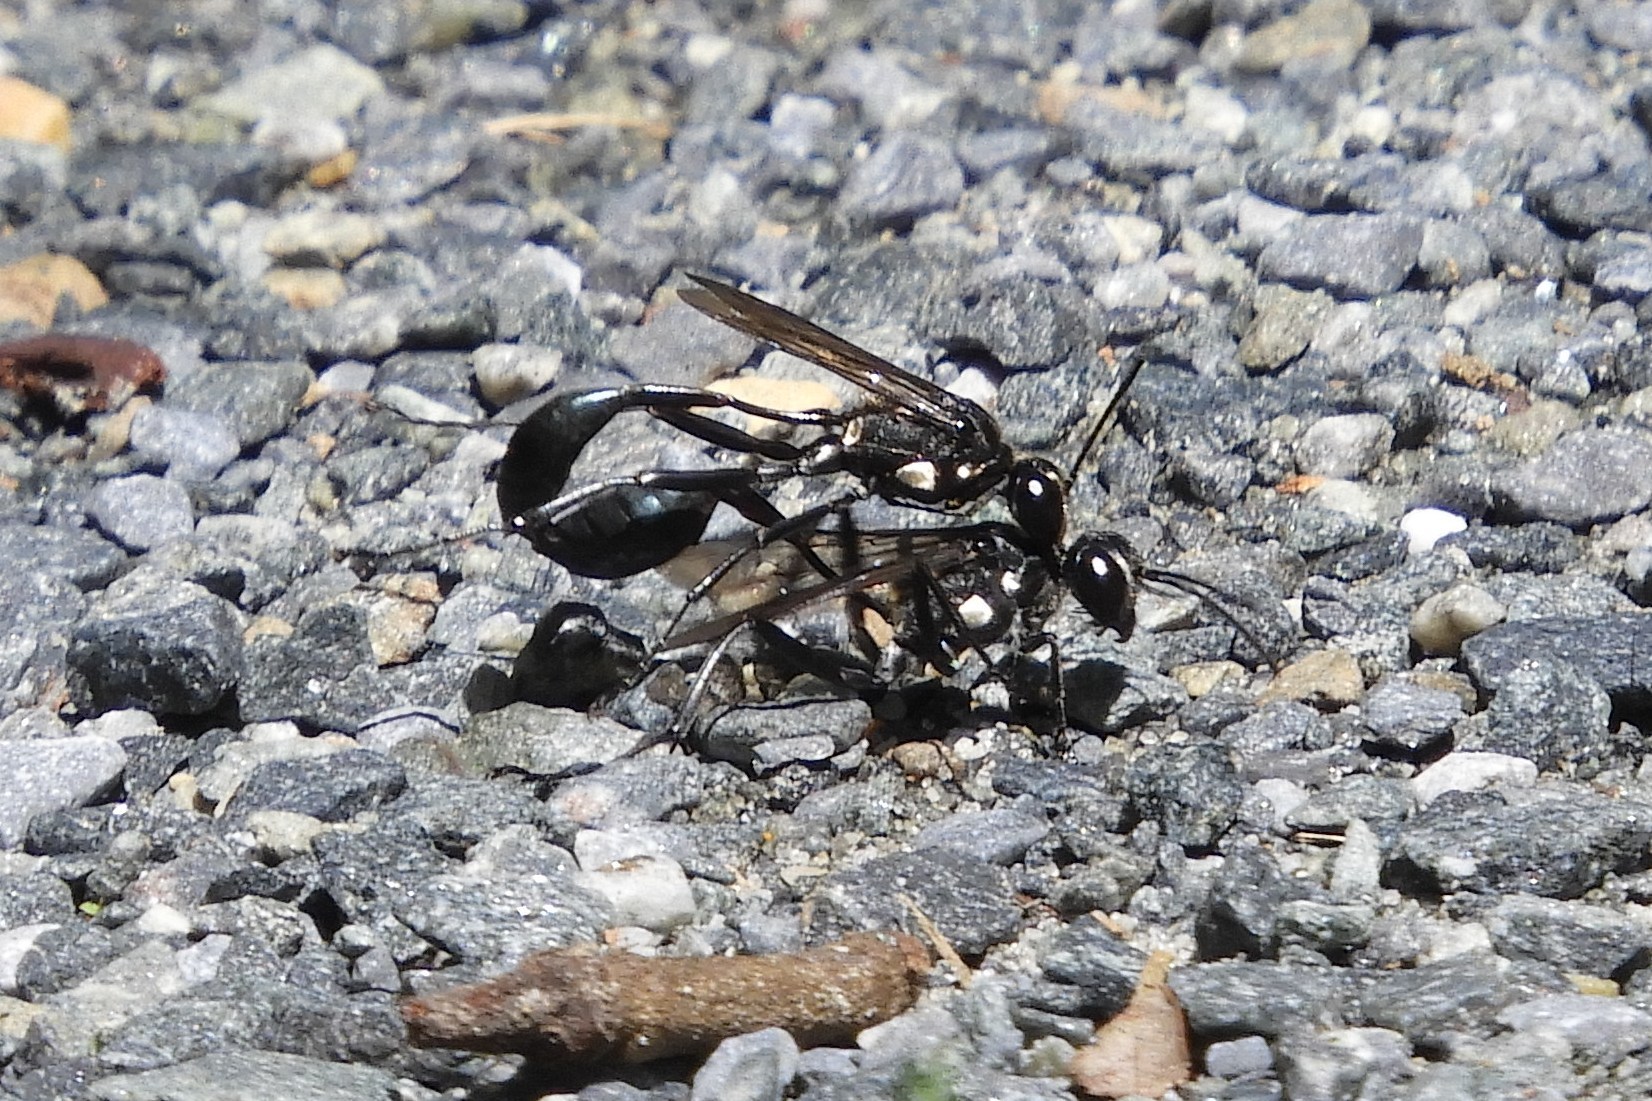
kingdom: Animalia
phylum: Arthropoda
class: Insecta
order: Hymenoptera
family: Sphecidae
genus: Eremnophila
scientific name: Eremnophila aureonotata
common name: Gold-marked thread-waisted wasp
